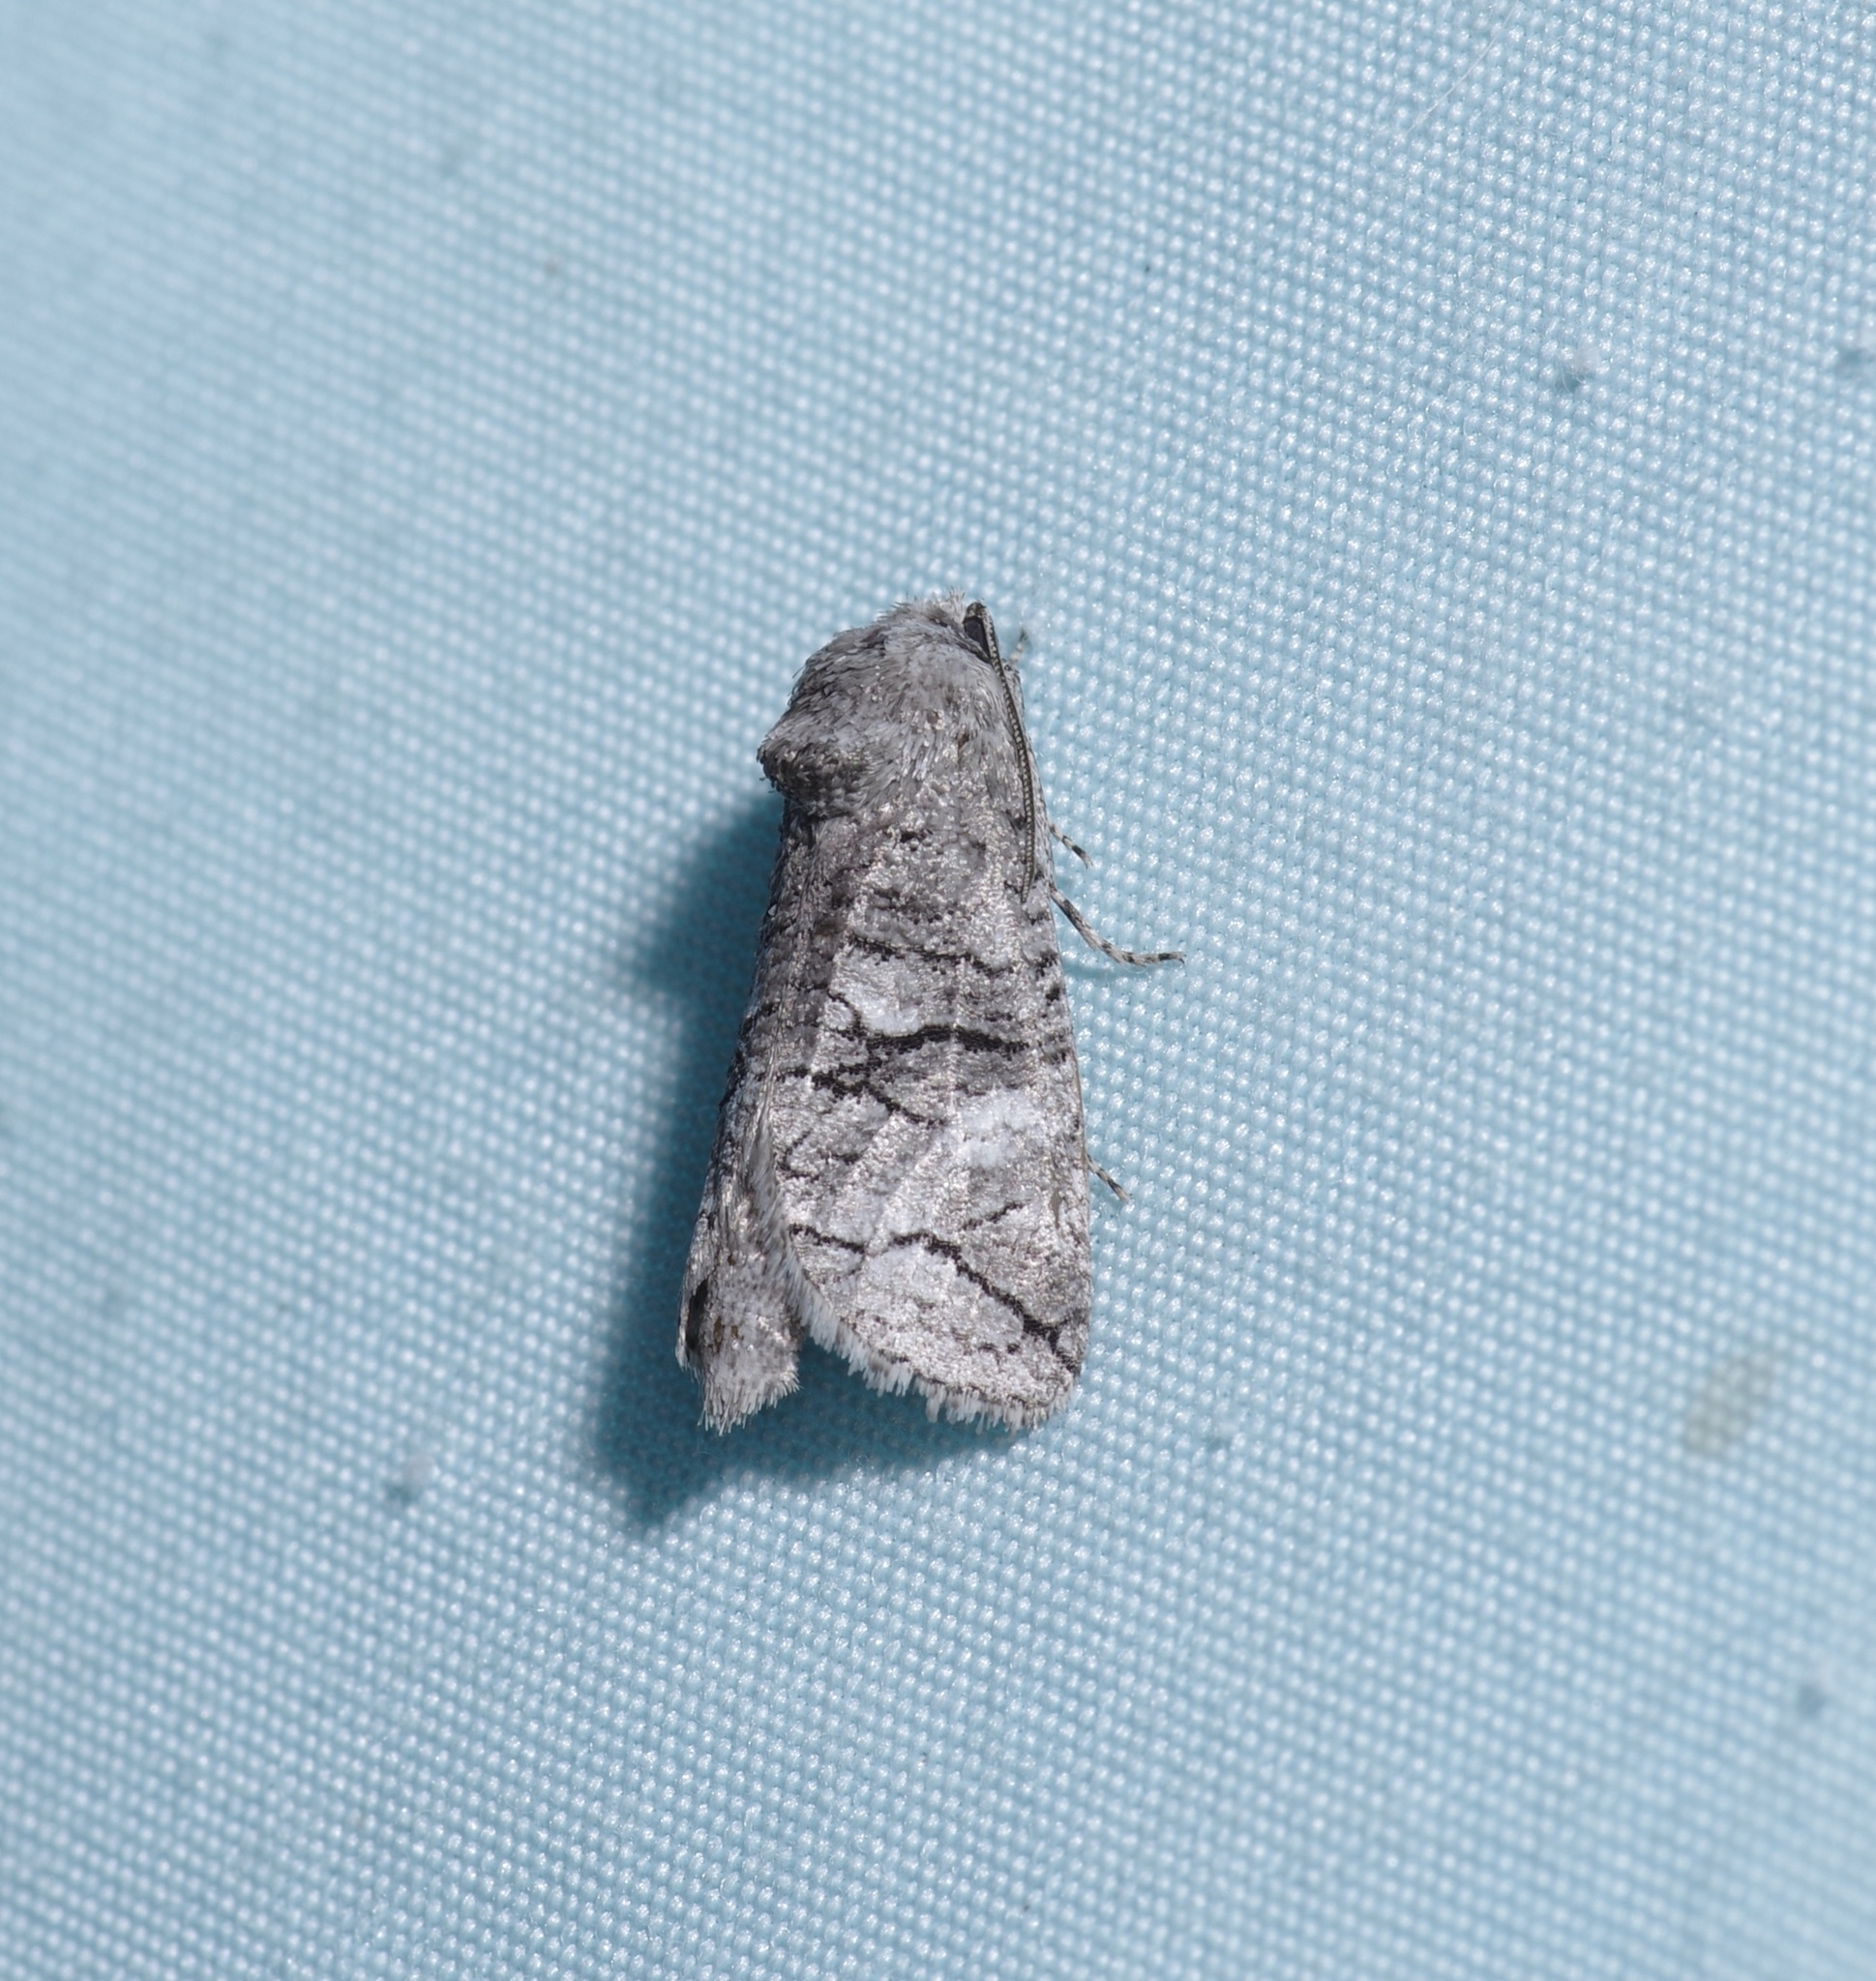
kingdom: Animalia
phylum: Arthropoda
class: Insecta
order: Lepidoptera
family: Cossidae
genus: Fania
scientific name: Fania nanus
